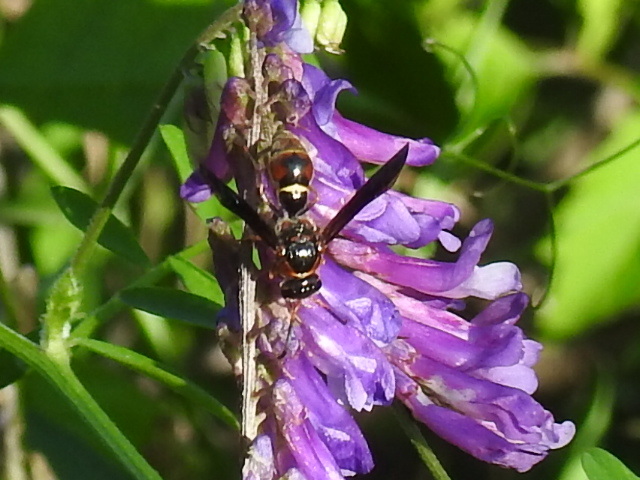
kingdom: Animalia
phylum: Arthropoda
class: Insecta
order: Hymenoptera
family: Eumenidae
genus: Parazumia
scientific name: Parazumia tolteca
